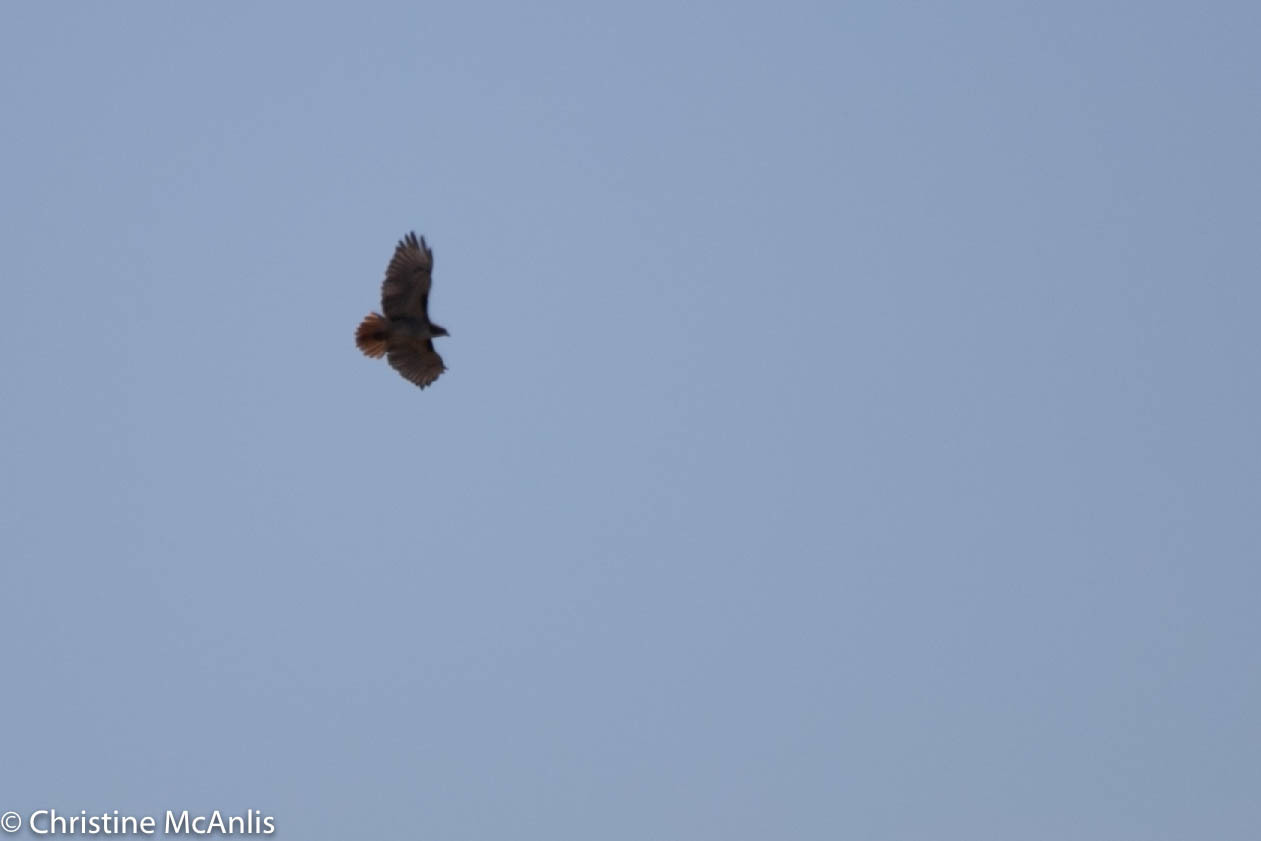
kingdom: Animalia
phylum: Chordata
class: Aves
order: Accipitriformes
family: Accipitridae
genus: Buteo
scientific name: Buteo jamaicensis
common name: Red-tailed hawk
